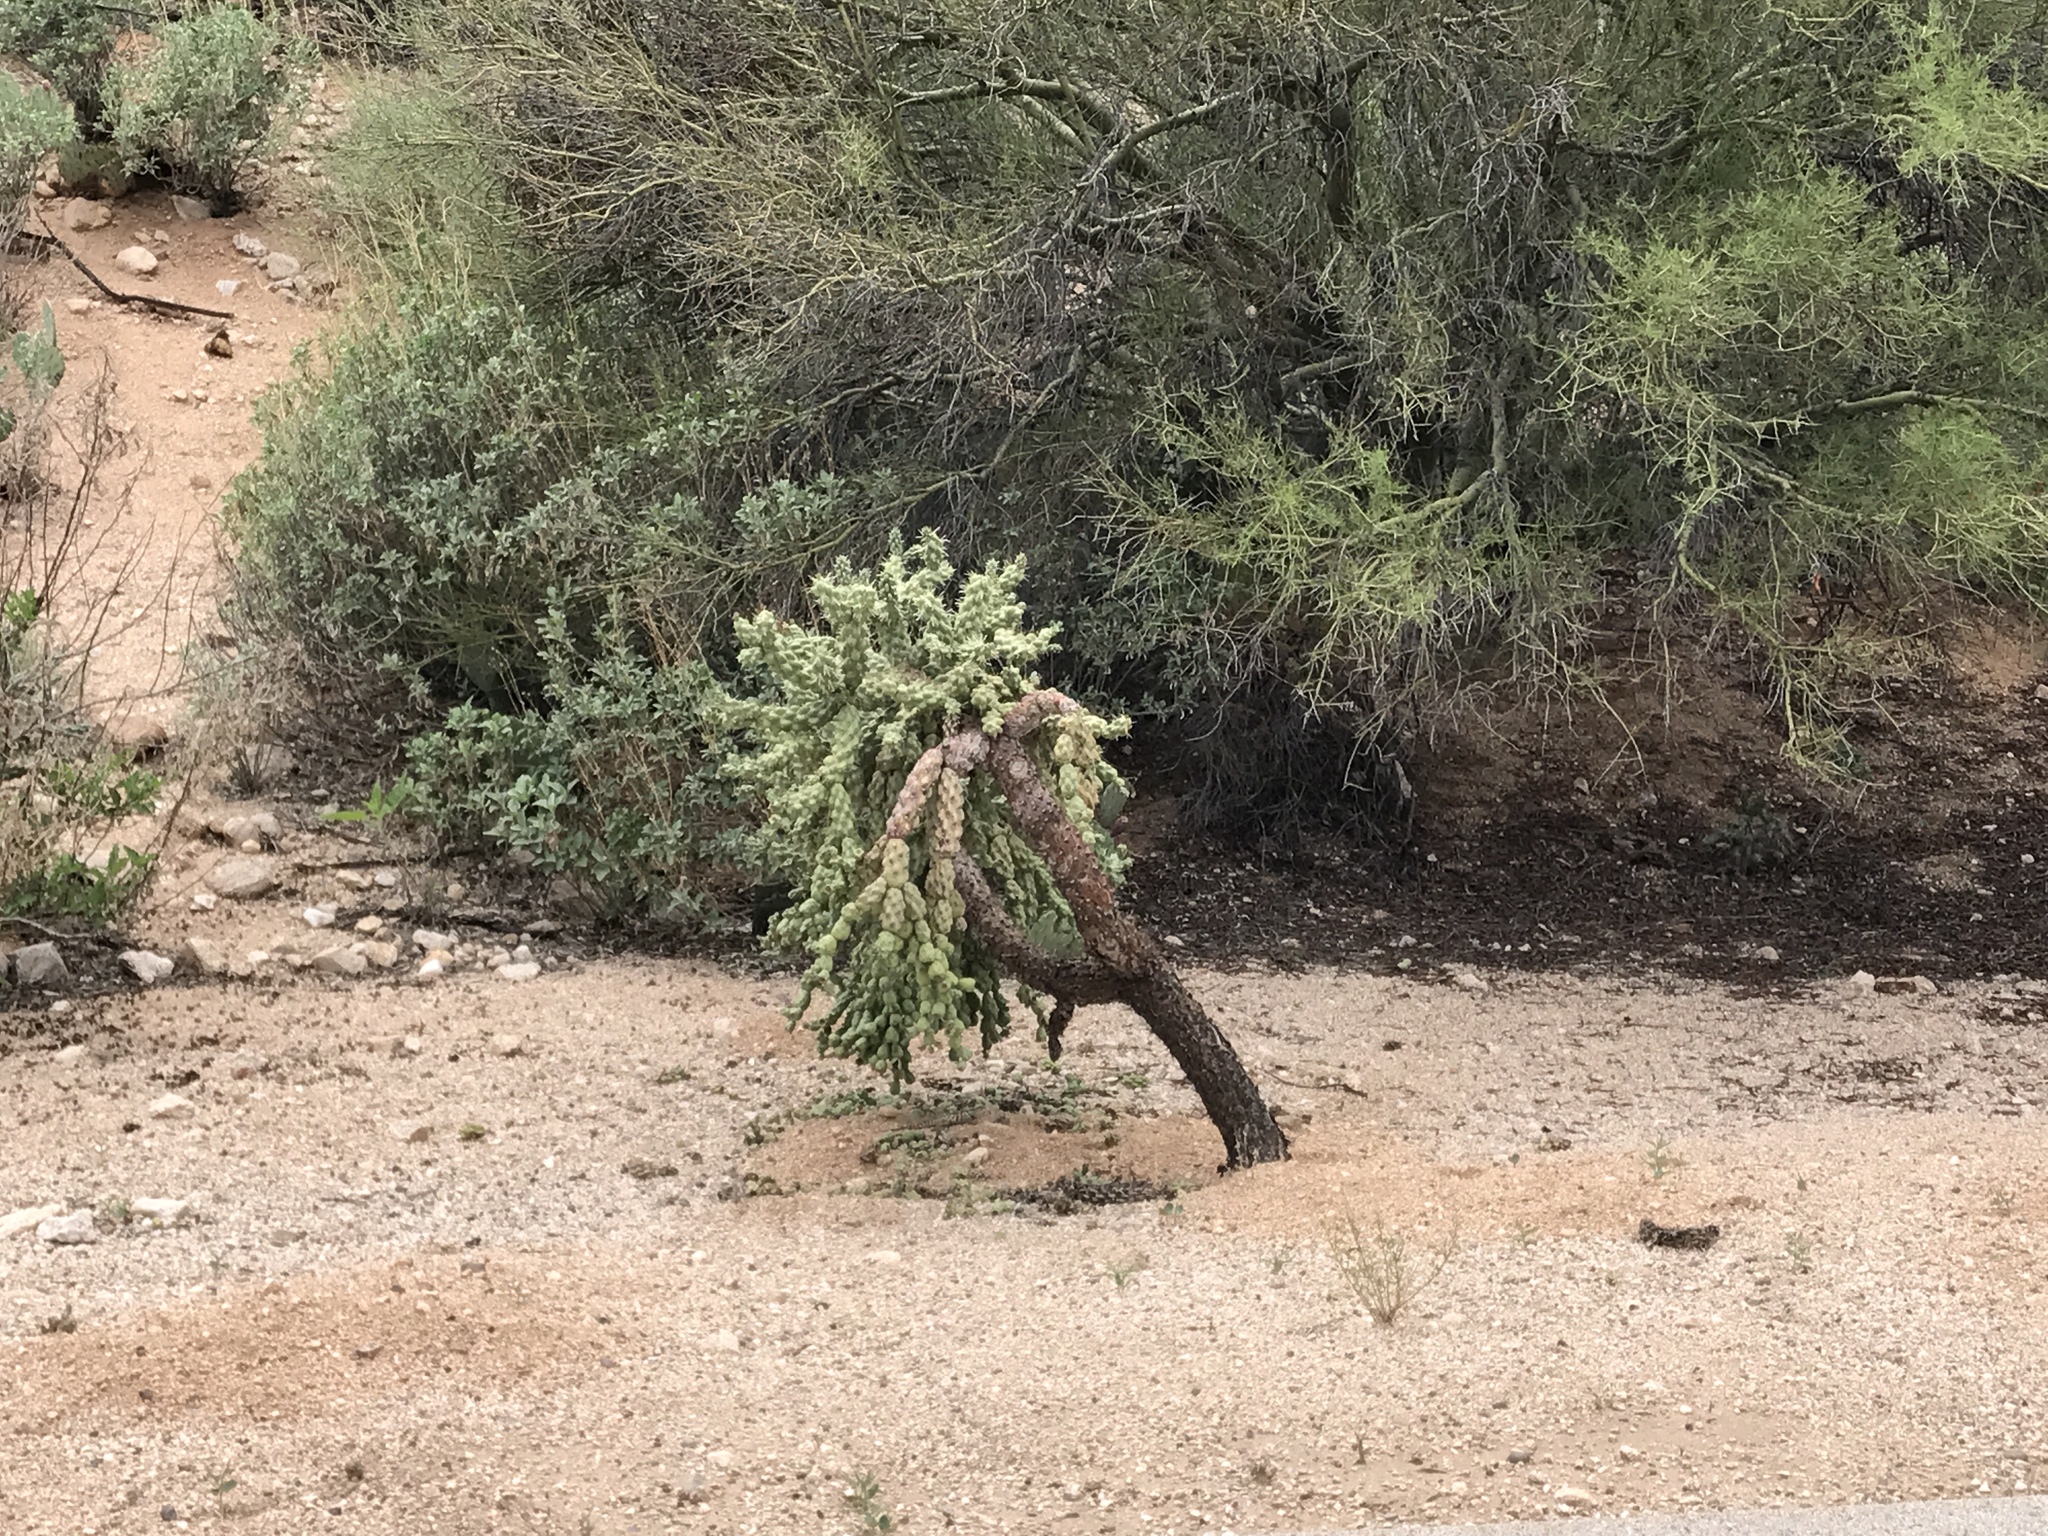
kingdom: Plantae
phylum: Tracheophyta
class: Magnoliopsida
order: Caryophyllales
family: Cactaceae
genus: Cylindropuntia
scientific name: Cylindropuntia fulgida
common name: Jumping cholla
